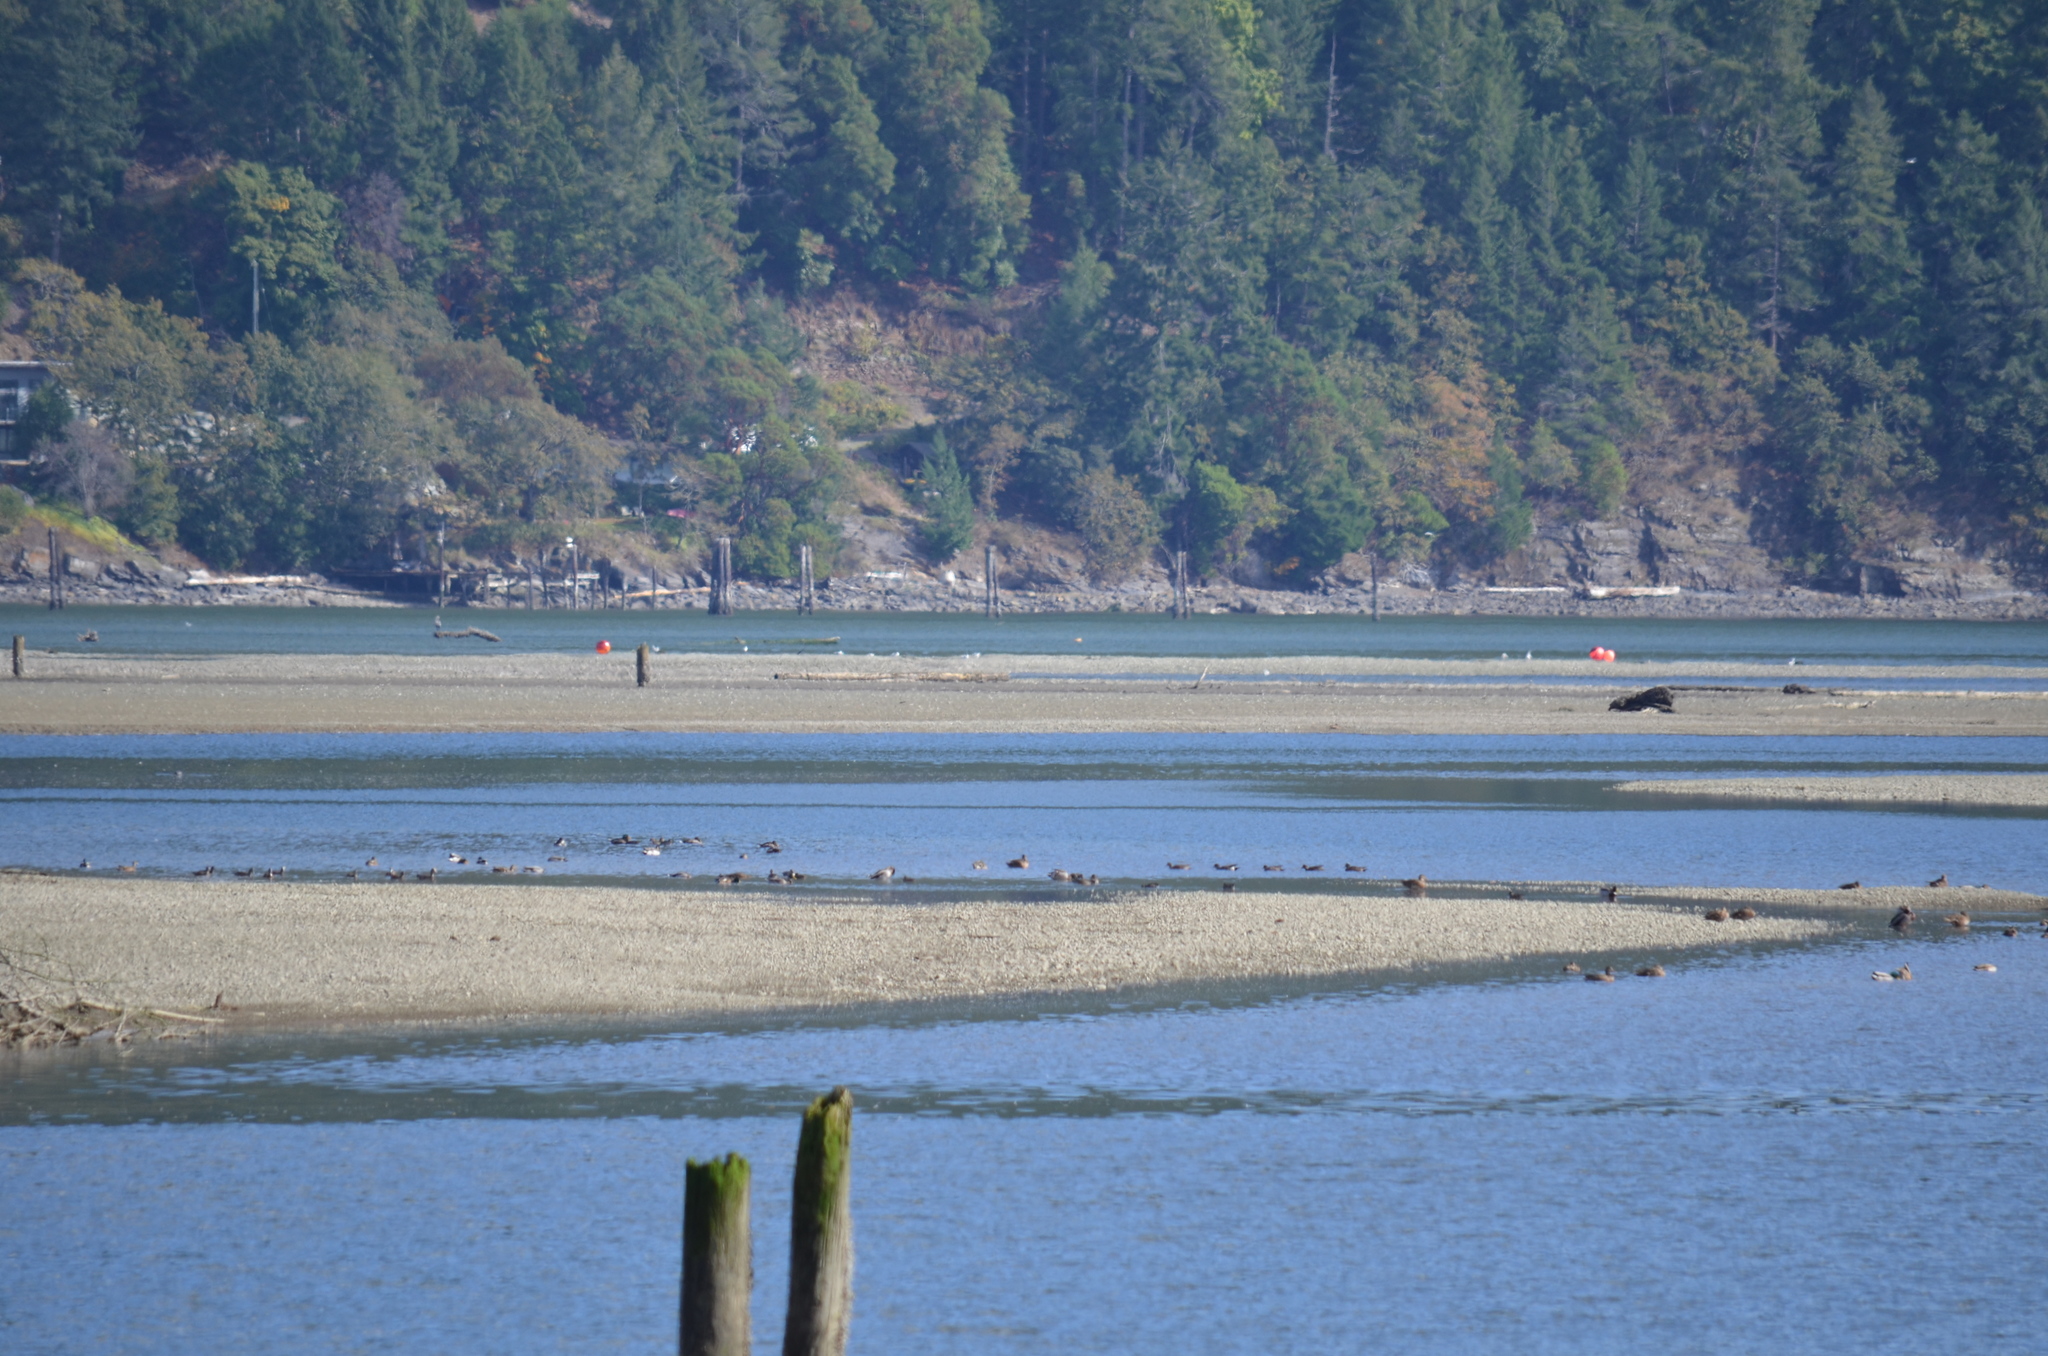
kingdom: Animalia
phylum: Chordata
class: Aves
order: Anseriformes
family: Anatidae
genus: Anas
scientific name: Anas platyrhynchos
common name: Mallard
